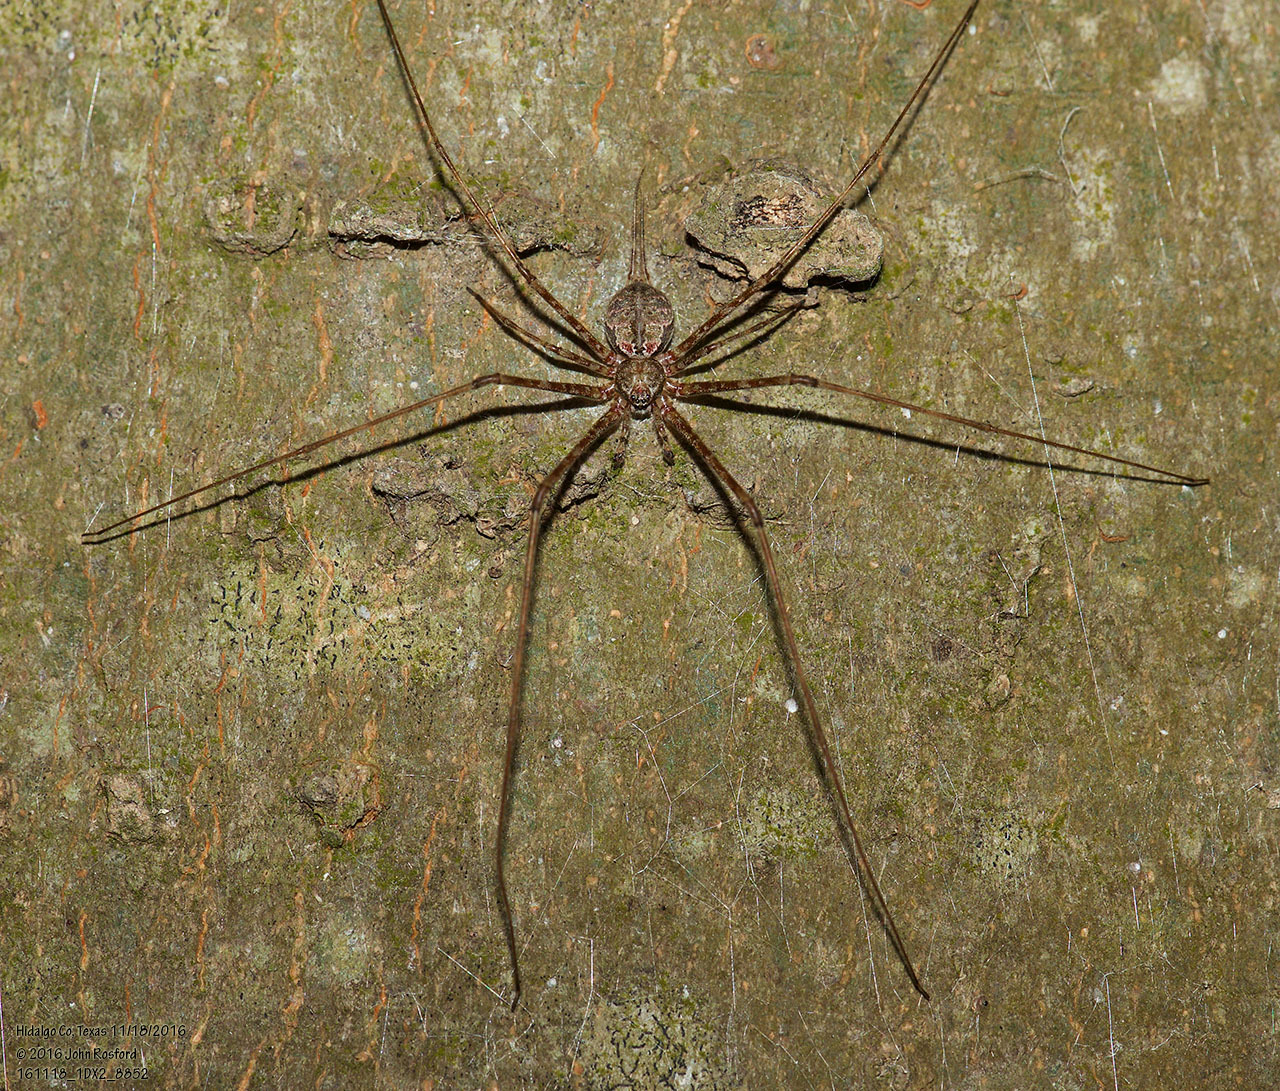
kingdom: Animalia
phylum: Arthropoda
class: Arachnida
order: Araneae
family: Hersiliidae
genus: Neotama
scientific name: Neotama mexicana
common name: Tree trunk spiders
